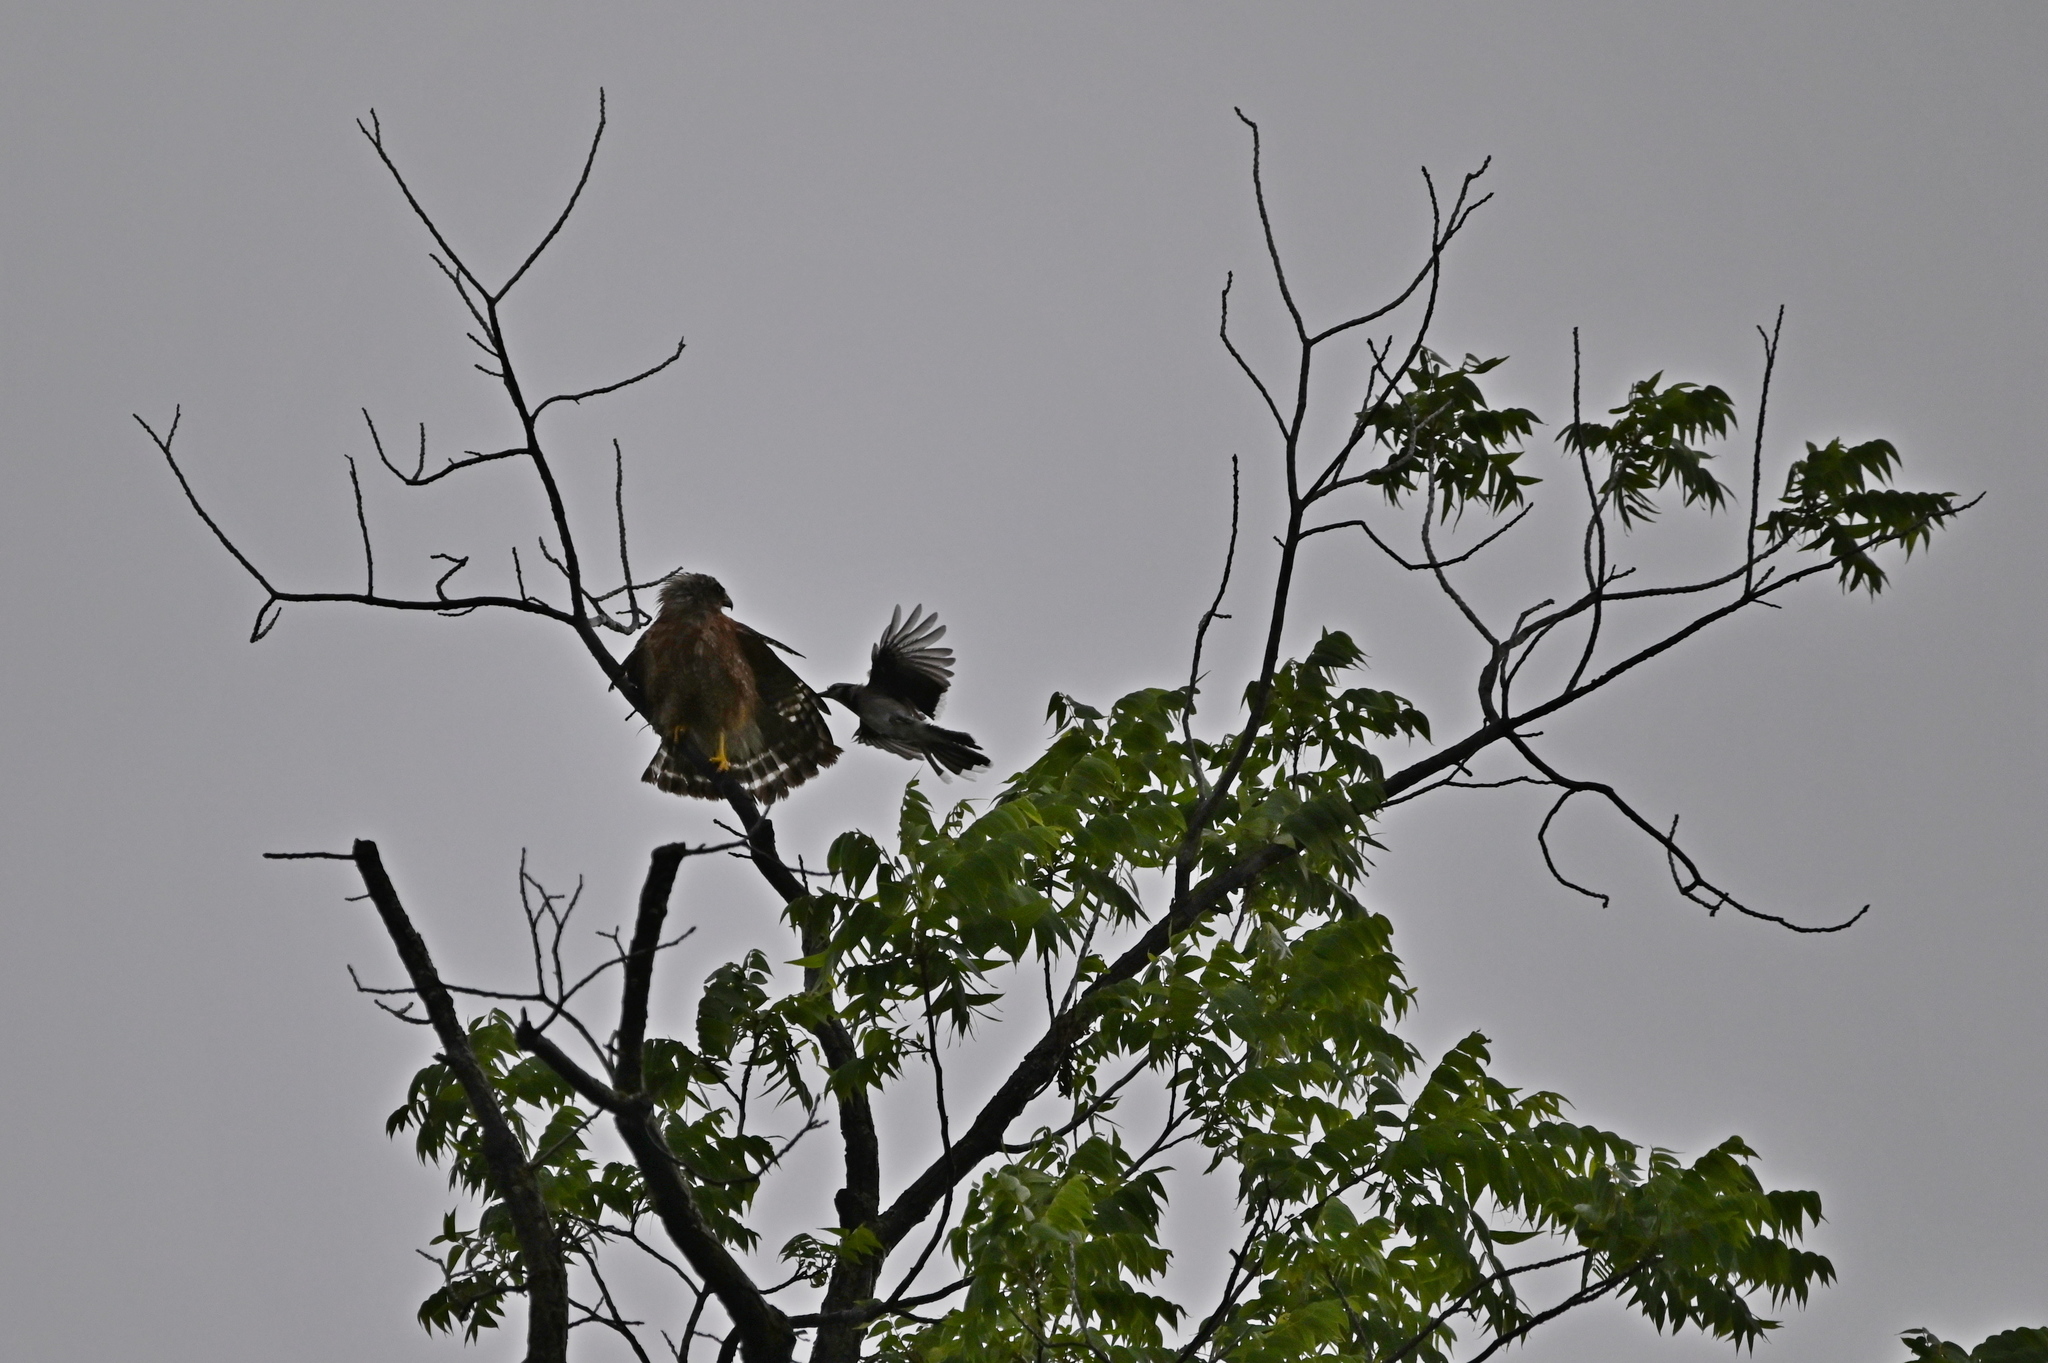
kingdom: Animalia
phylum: Chordata
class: Aves
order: Accipitriformes
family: Accipitridae
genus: Buteo
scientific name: Buteo lineatus
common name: Red-shouldered hawk
